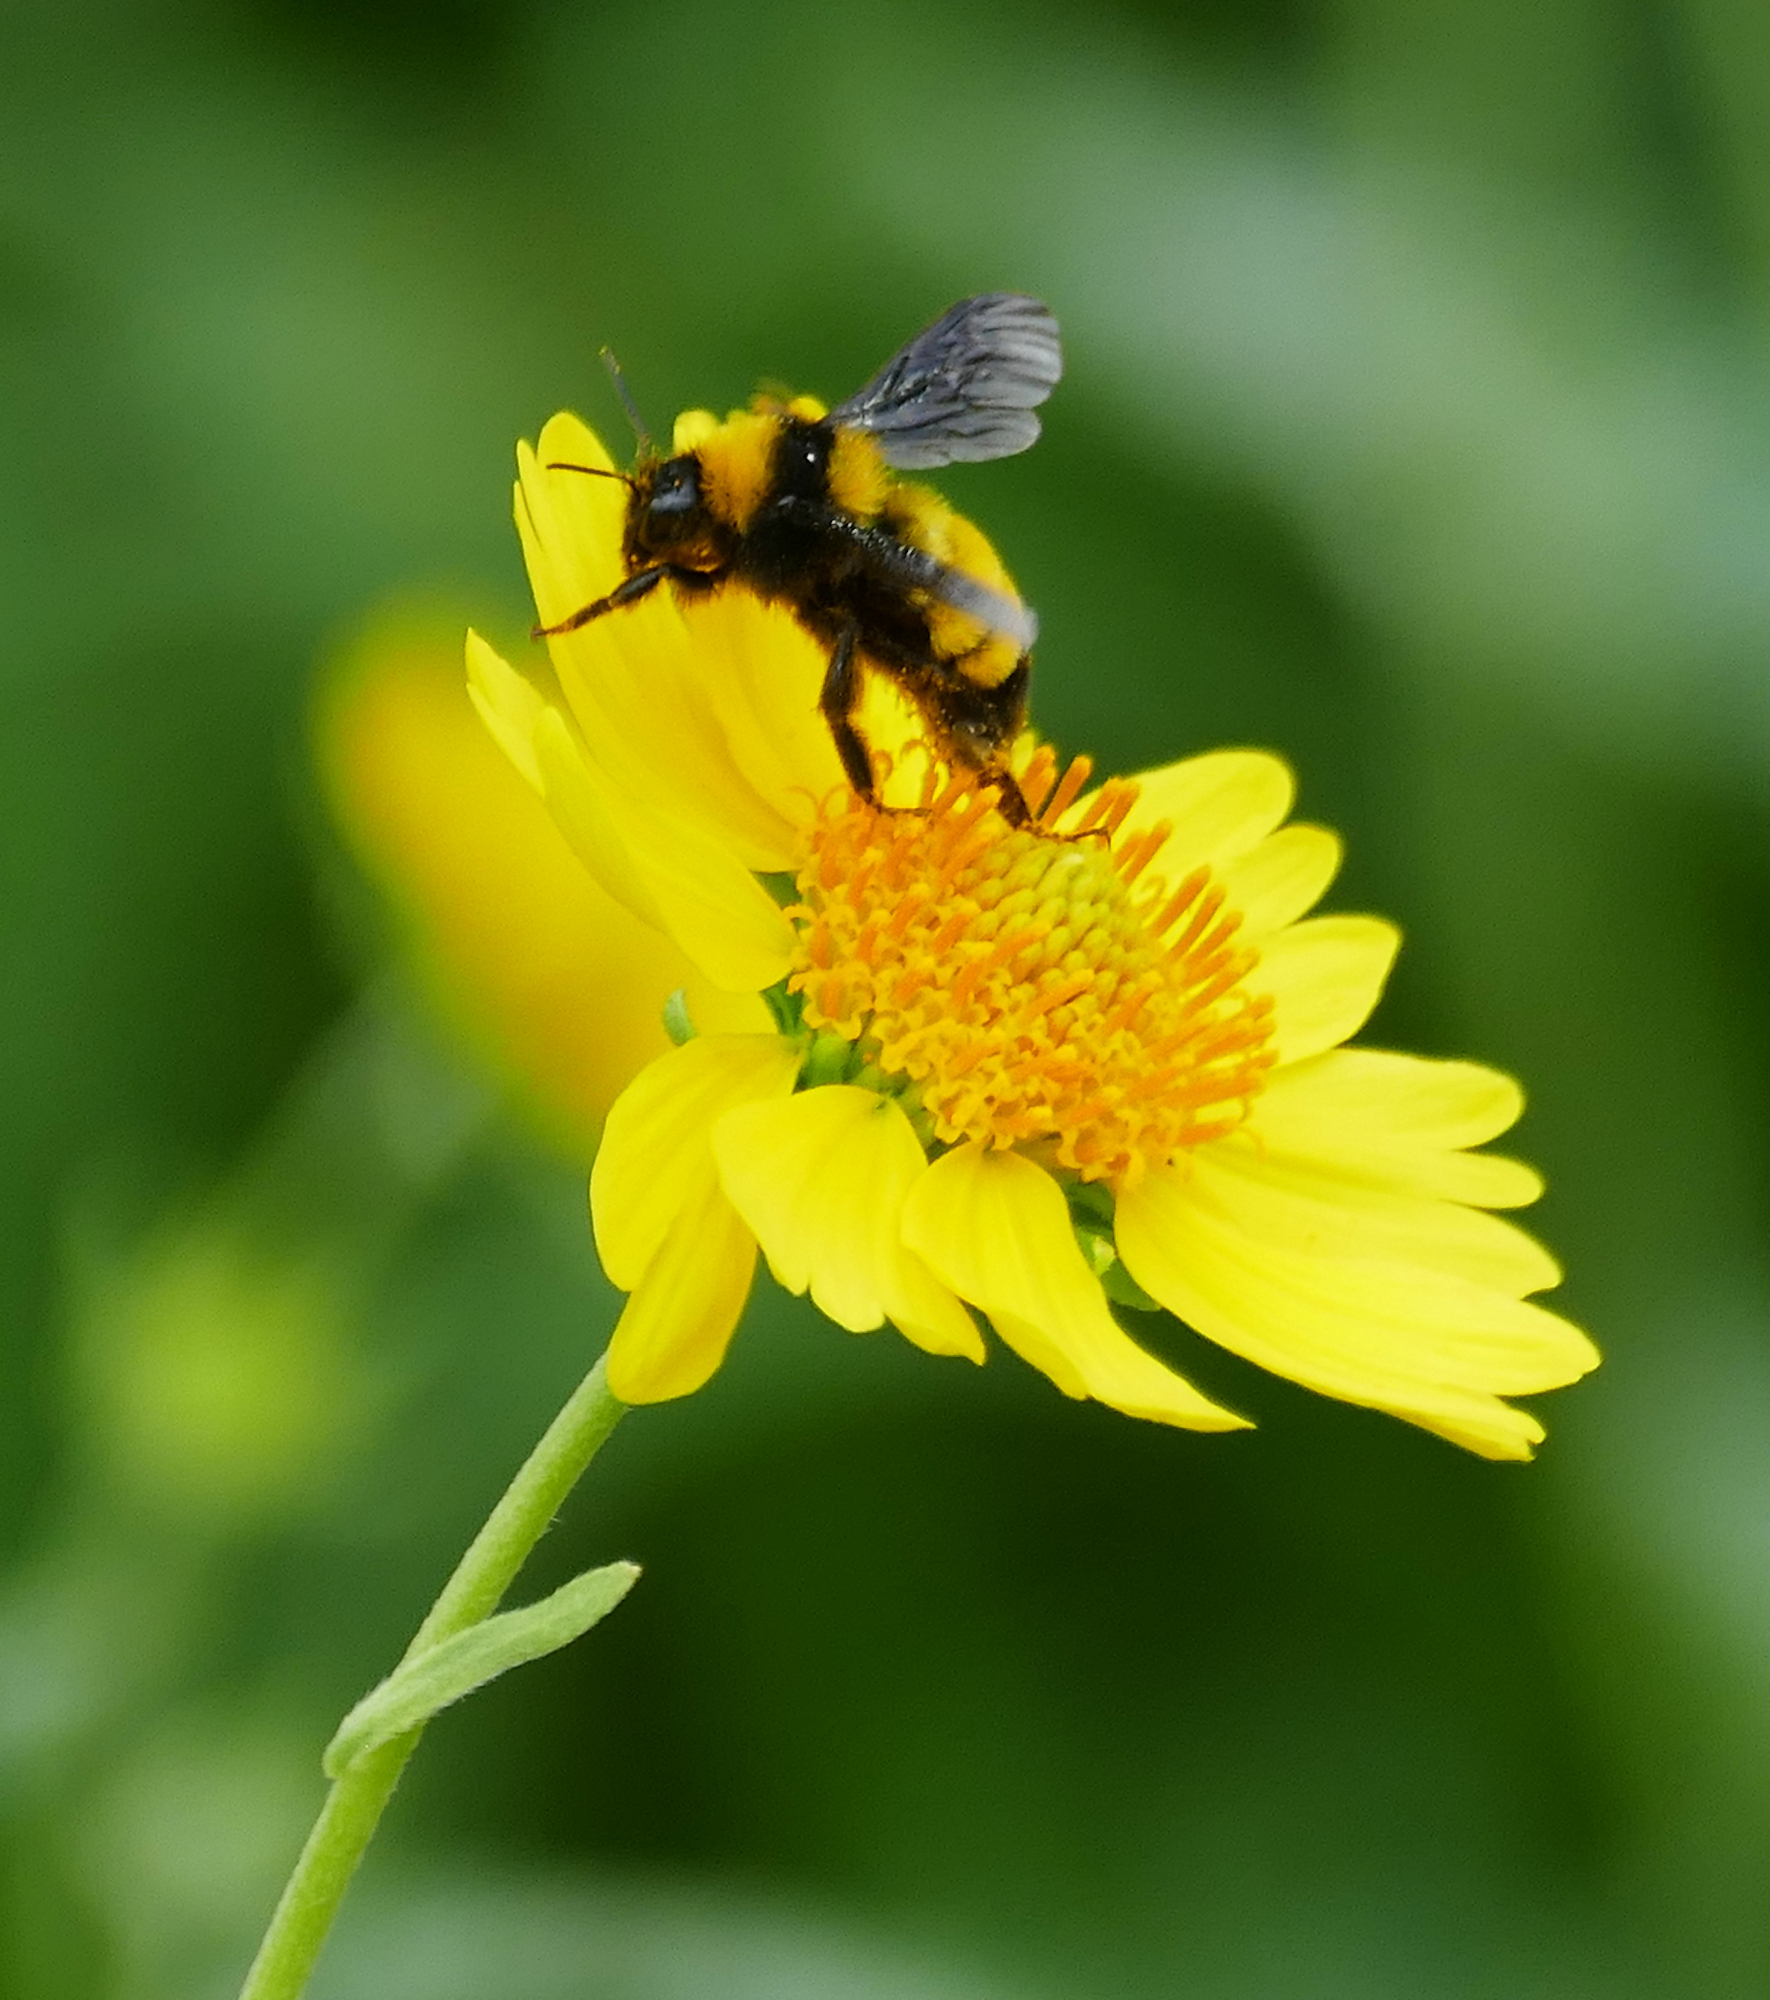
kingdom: Animalia
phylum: Arthropoda
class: Insecta
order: Hymenoptera
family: Apidae
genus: Bombus
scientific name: Bombus sonorus
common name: Sonoran bumble bee
